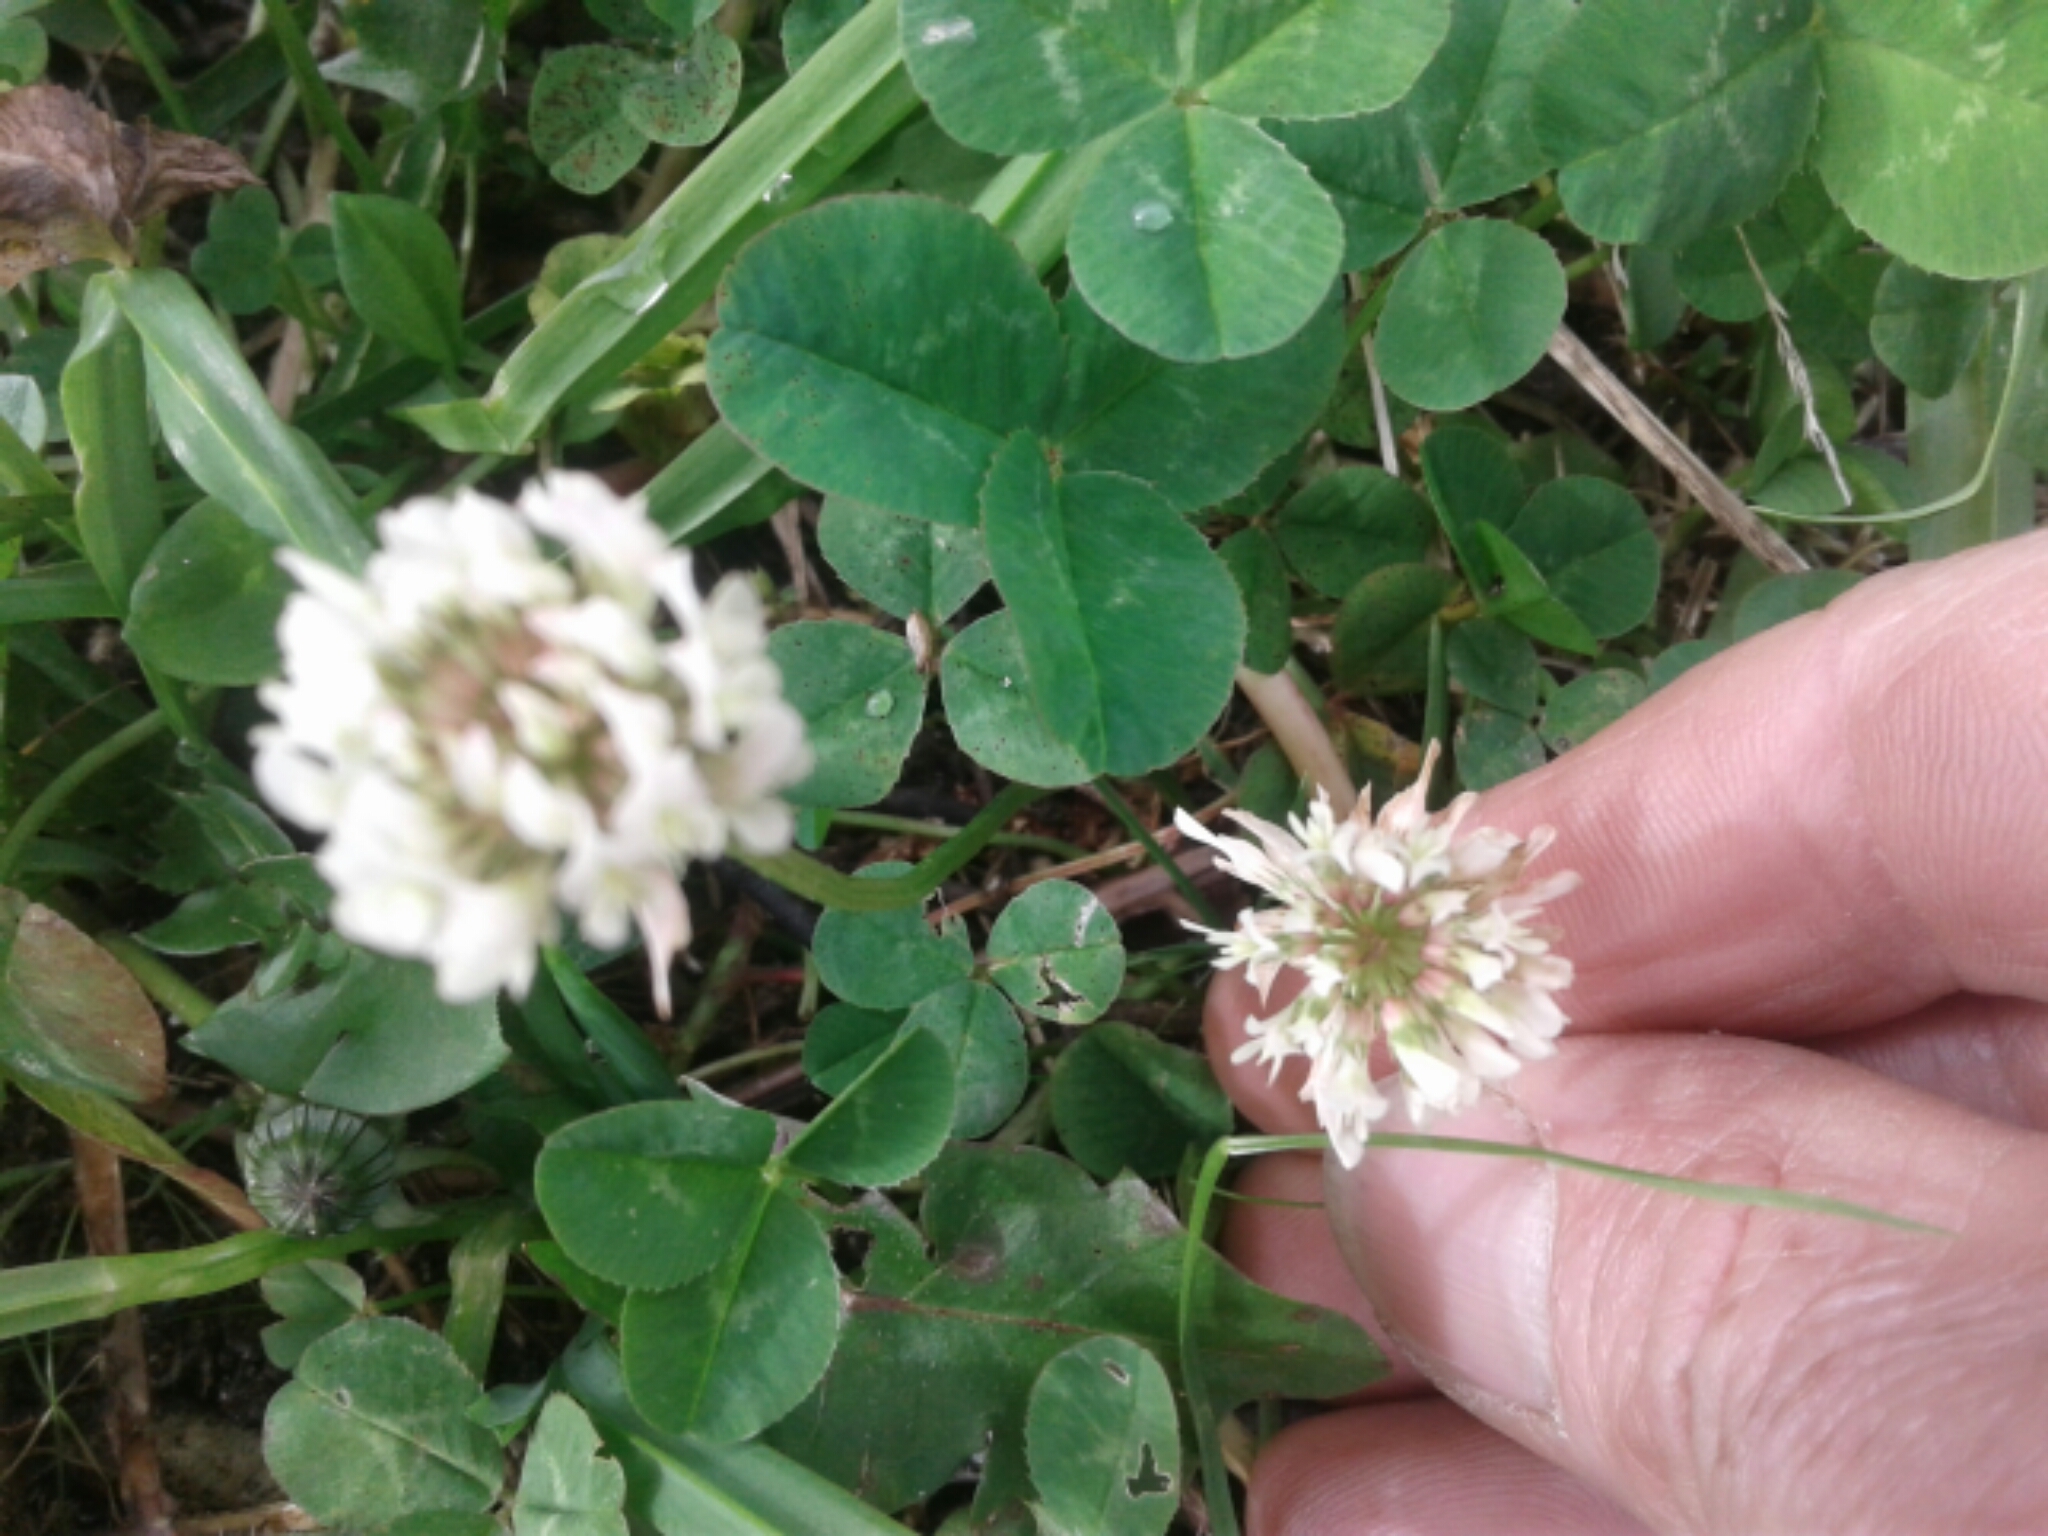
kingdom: Plantae
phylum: Tracheophyta
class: Magnoliopsida
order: Fabales
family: Fabaceae
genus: Trifolium
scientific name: Trifolium repens
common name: White clover
